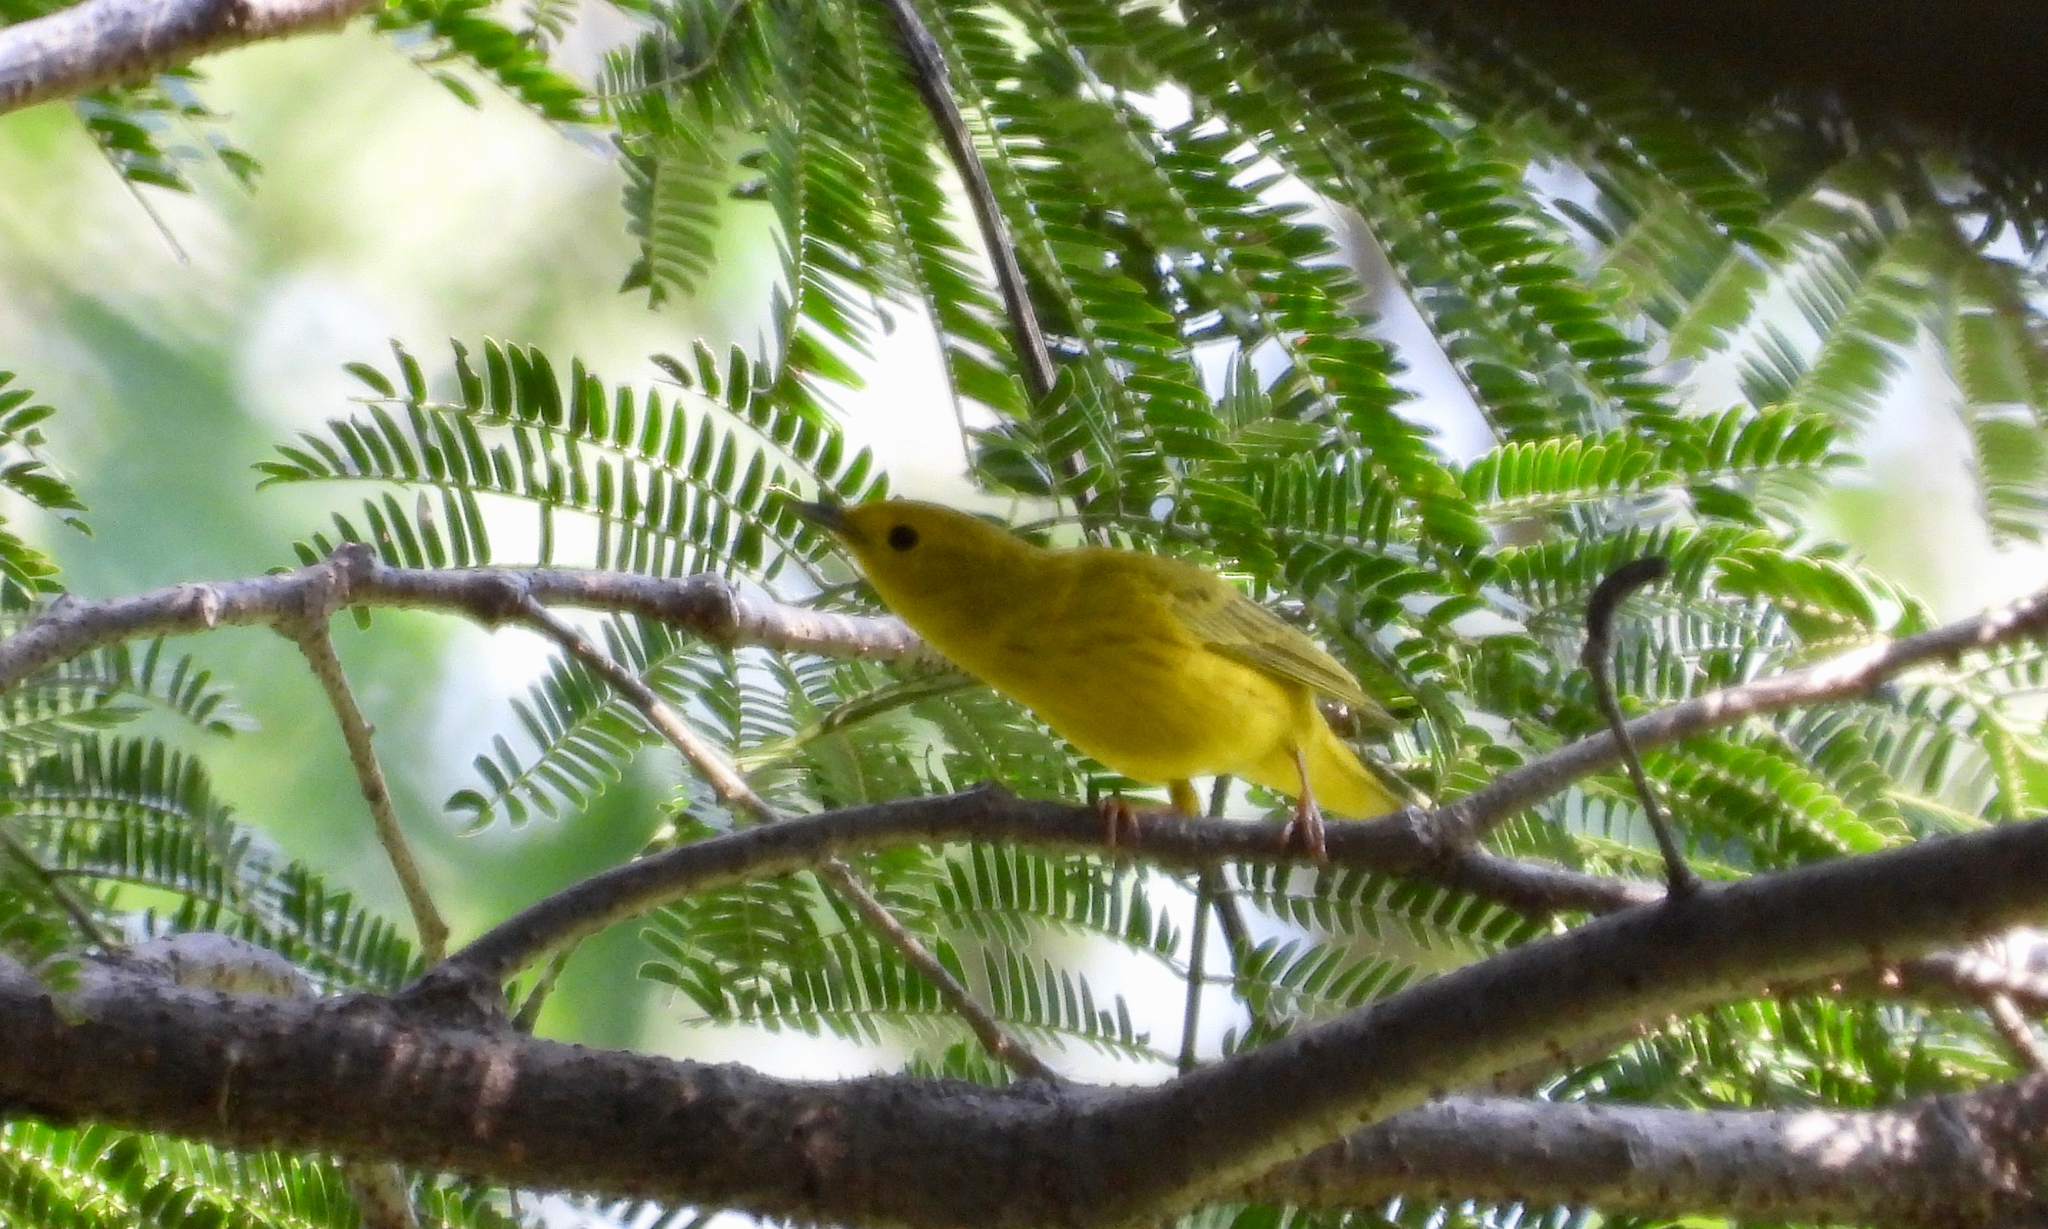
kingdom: Animalia
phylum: Chordata
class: Aves
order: Passeriformes
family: Parulidae
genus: Setophaga
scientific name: Setophaga petechia
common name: Yellow warbler
